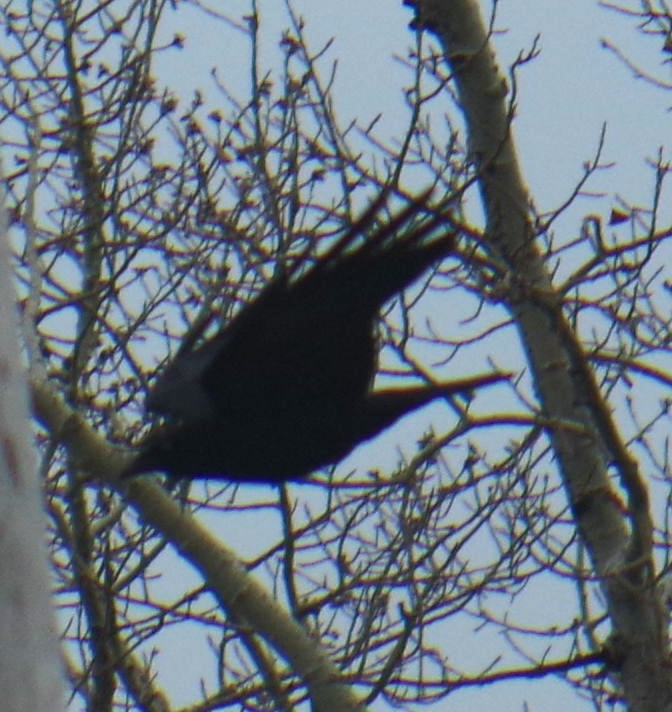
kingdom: Animalia
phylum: Chordata
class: Aves
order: Passeriformes
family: Corvidae
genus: Corvus
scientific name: Corvus brachyrhynchos
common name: American crow
